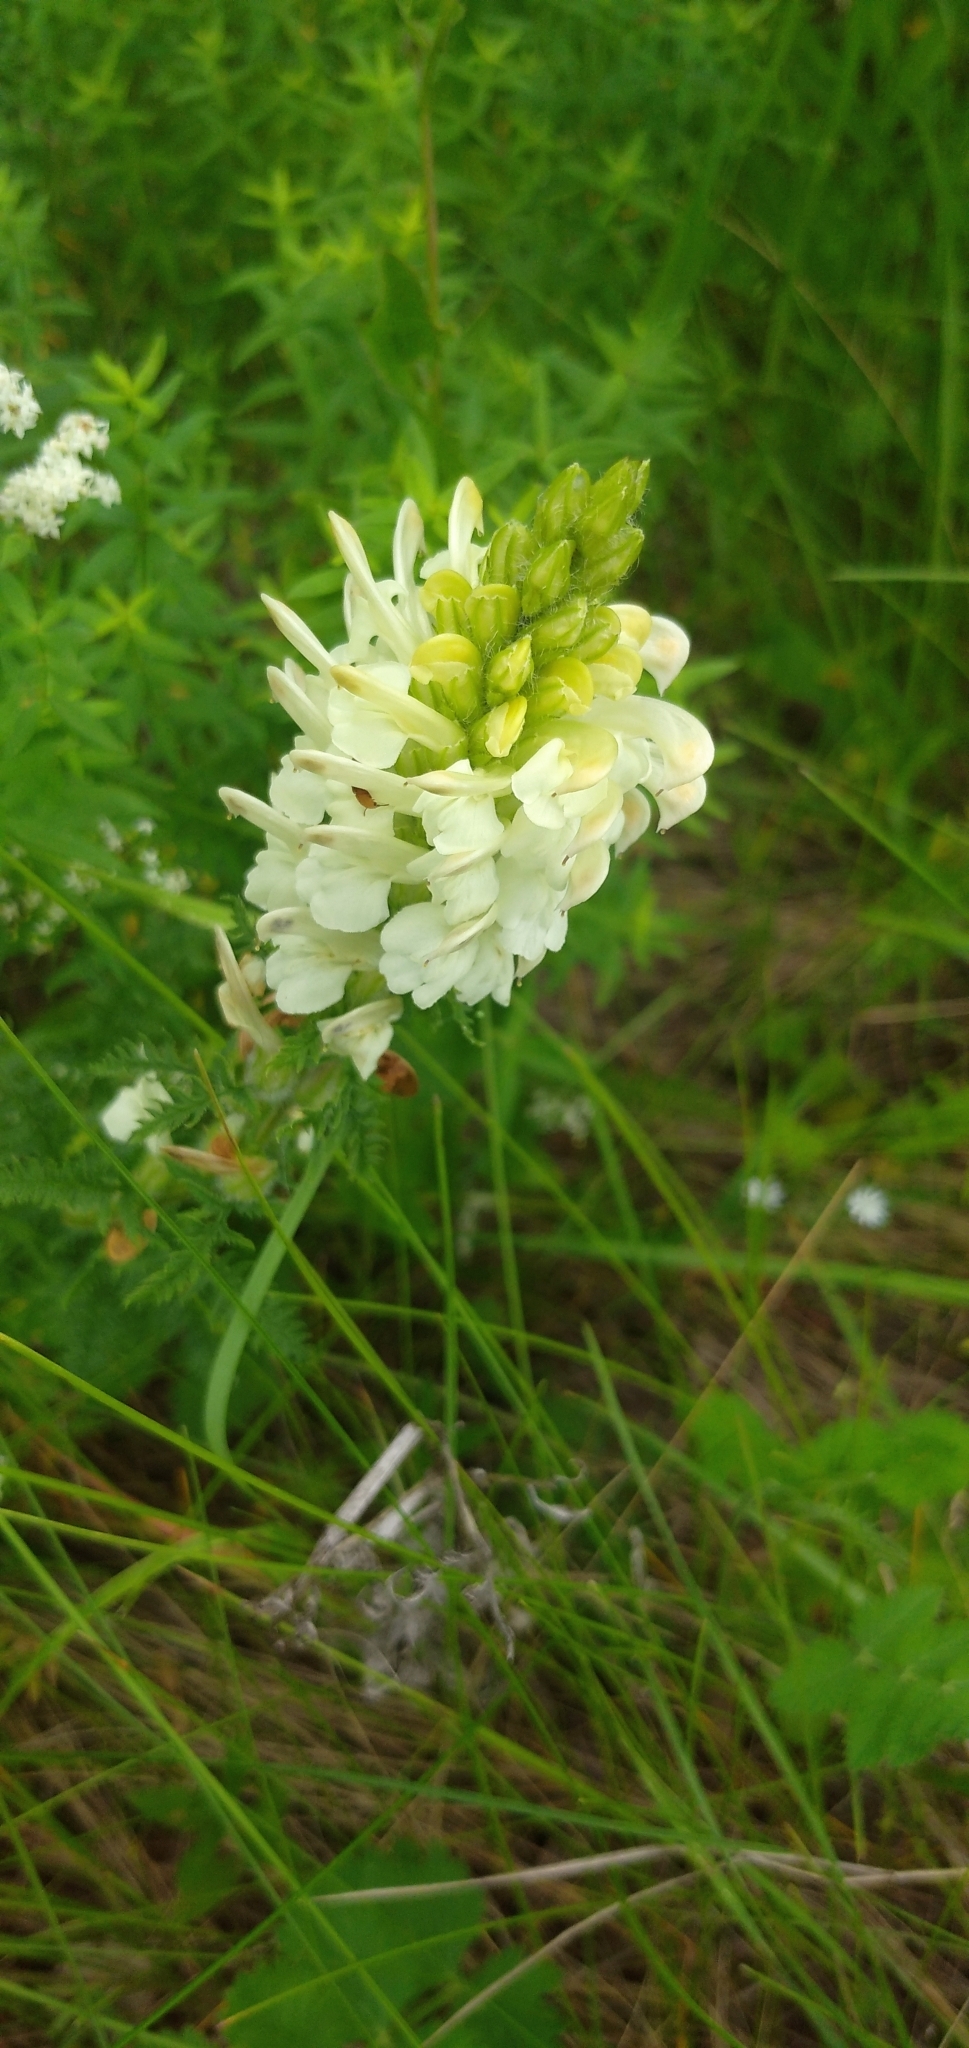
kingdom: Plantae
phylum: Tracheophyta
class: Magnoliopsida
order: Lamiales
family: Orobanchaceae
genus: Pedicularis
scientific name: Pedicularis uralensis
